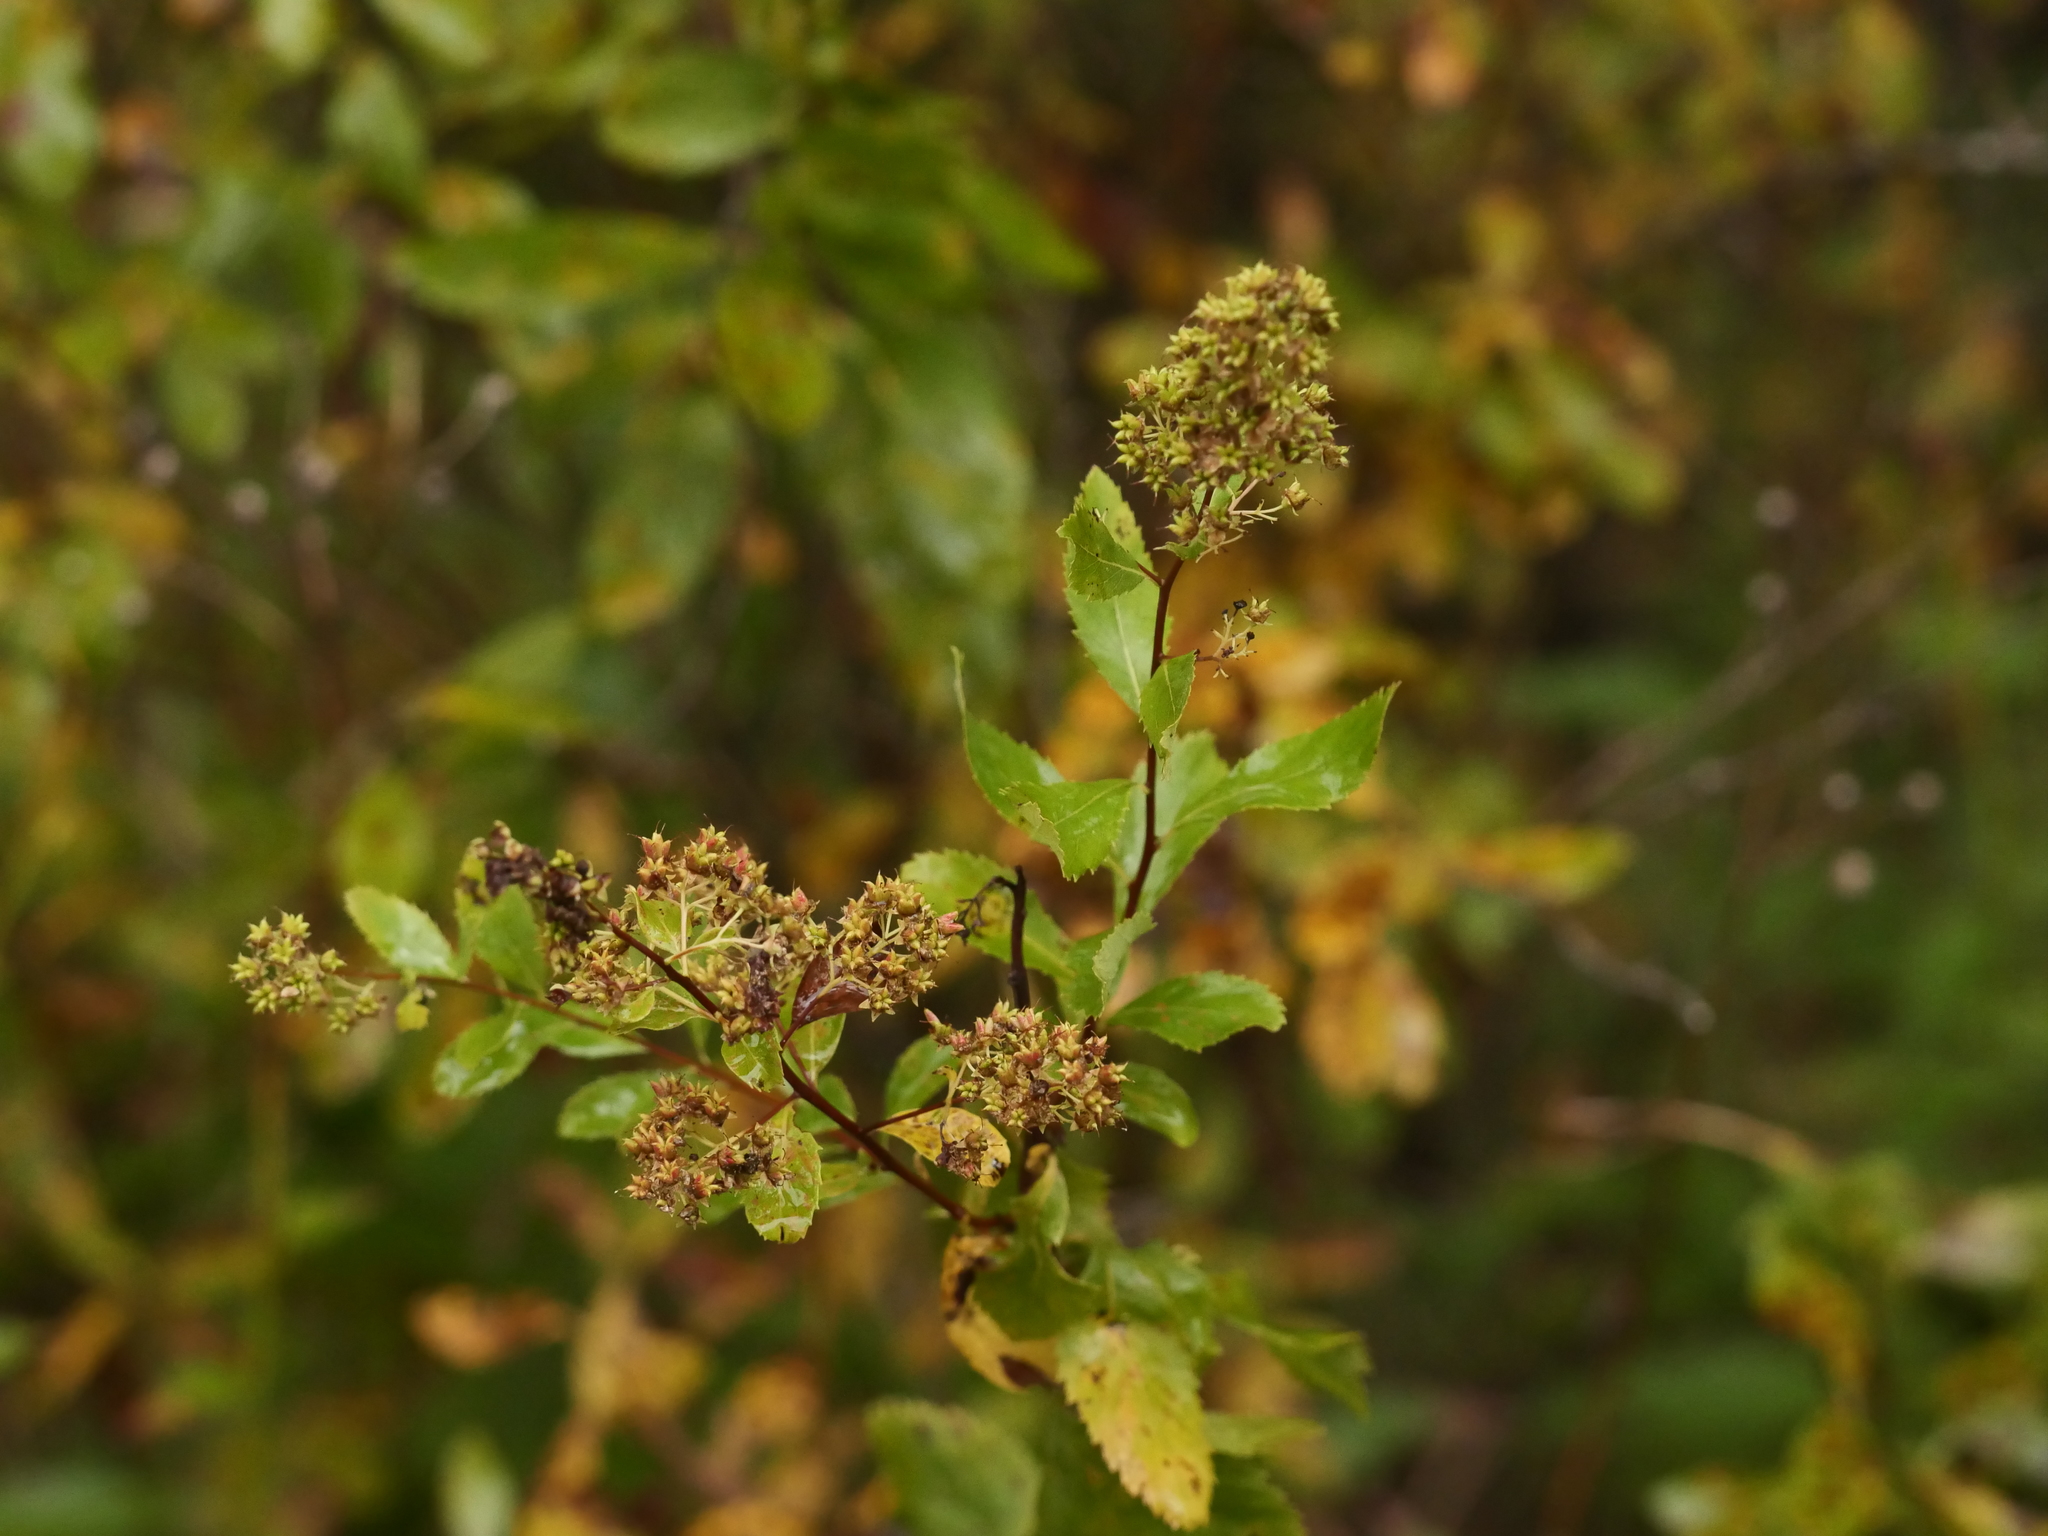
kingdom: Plantae
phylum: Tracheophyta
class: Magnoliopsida
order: Rosales
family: Rosaceae
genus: Spiraea
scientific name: Spiraea alba
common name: Pale bridewort
